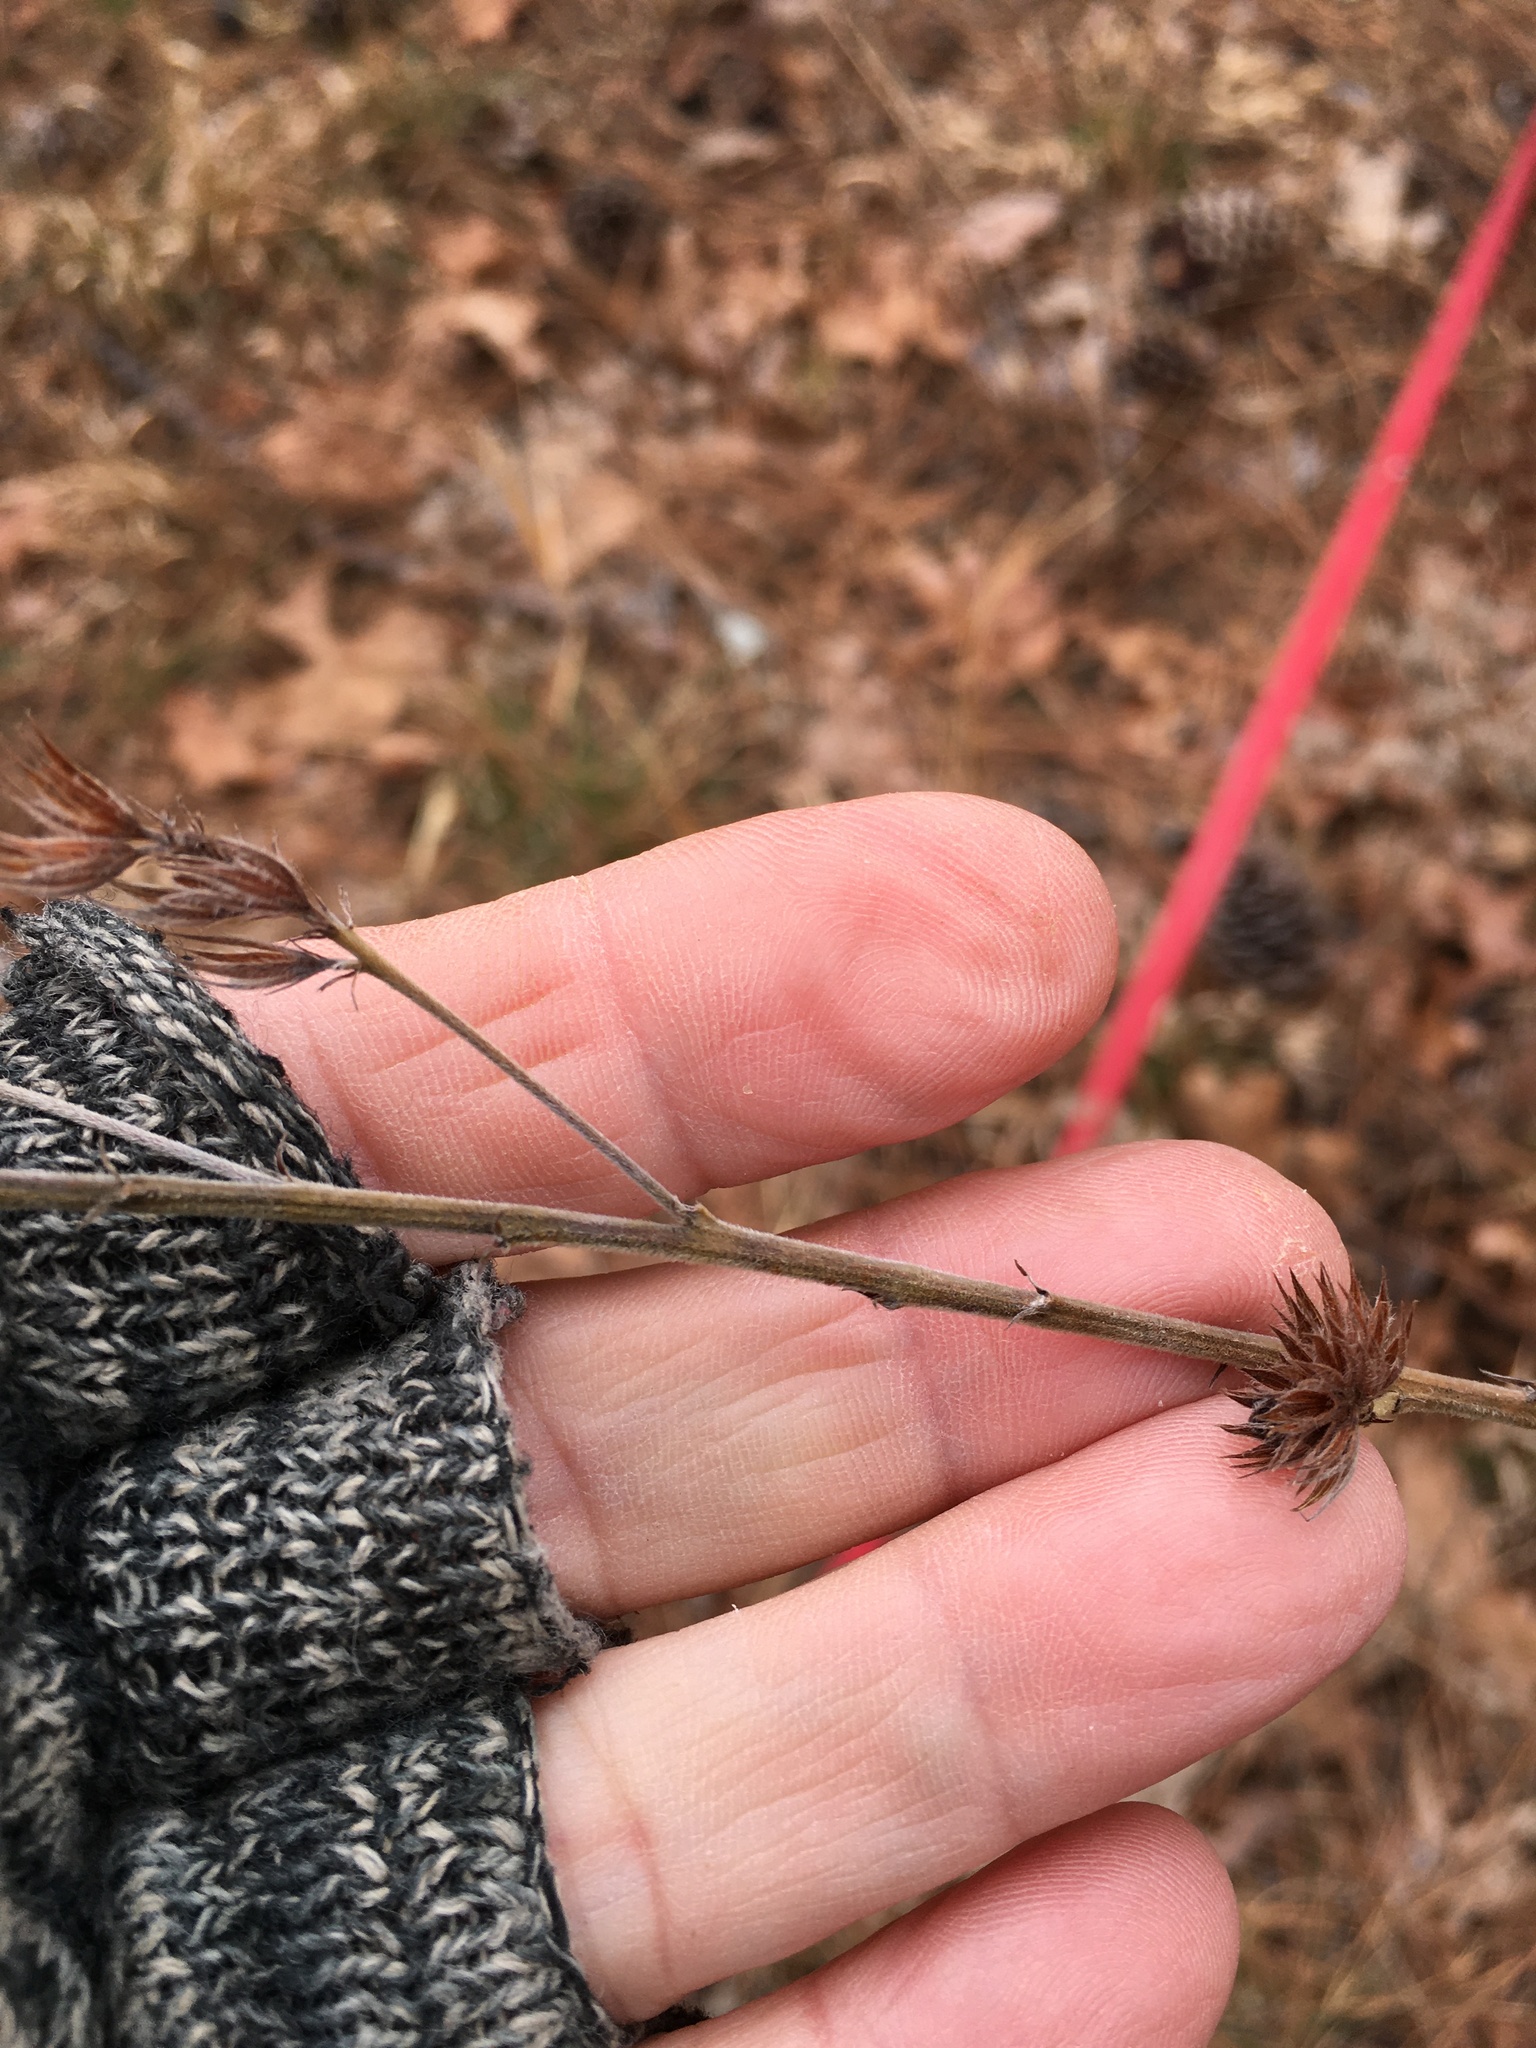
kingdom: Plantae
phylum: Tracheophyta
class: Magnoliopsida
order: Fabales
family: Fabaceae
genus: Lespedeza
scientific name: Lespedeza capitata
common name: Dusty clover
